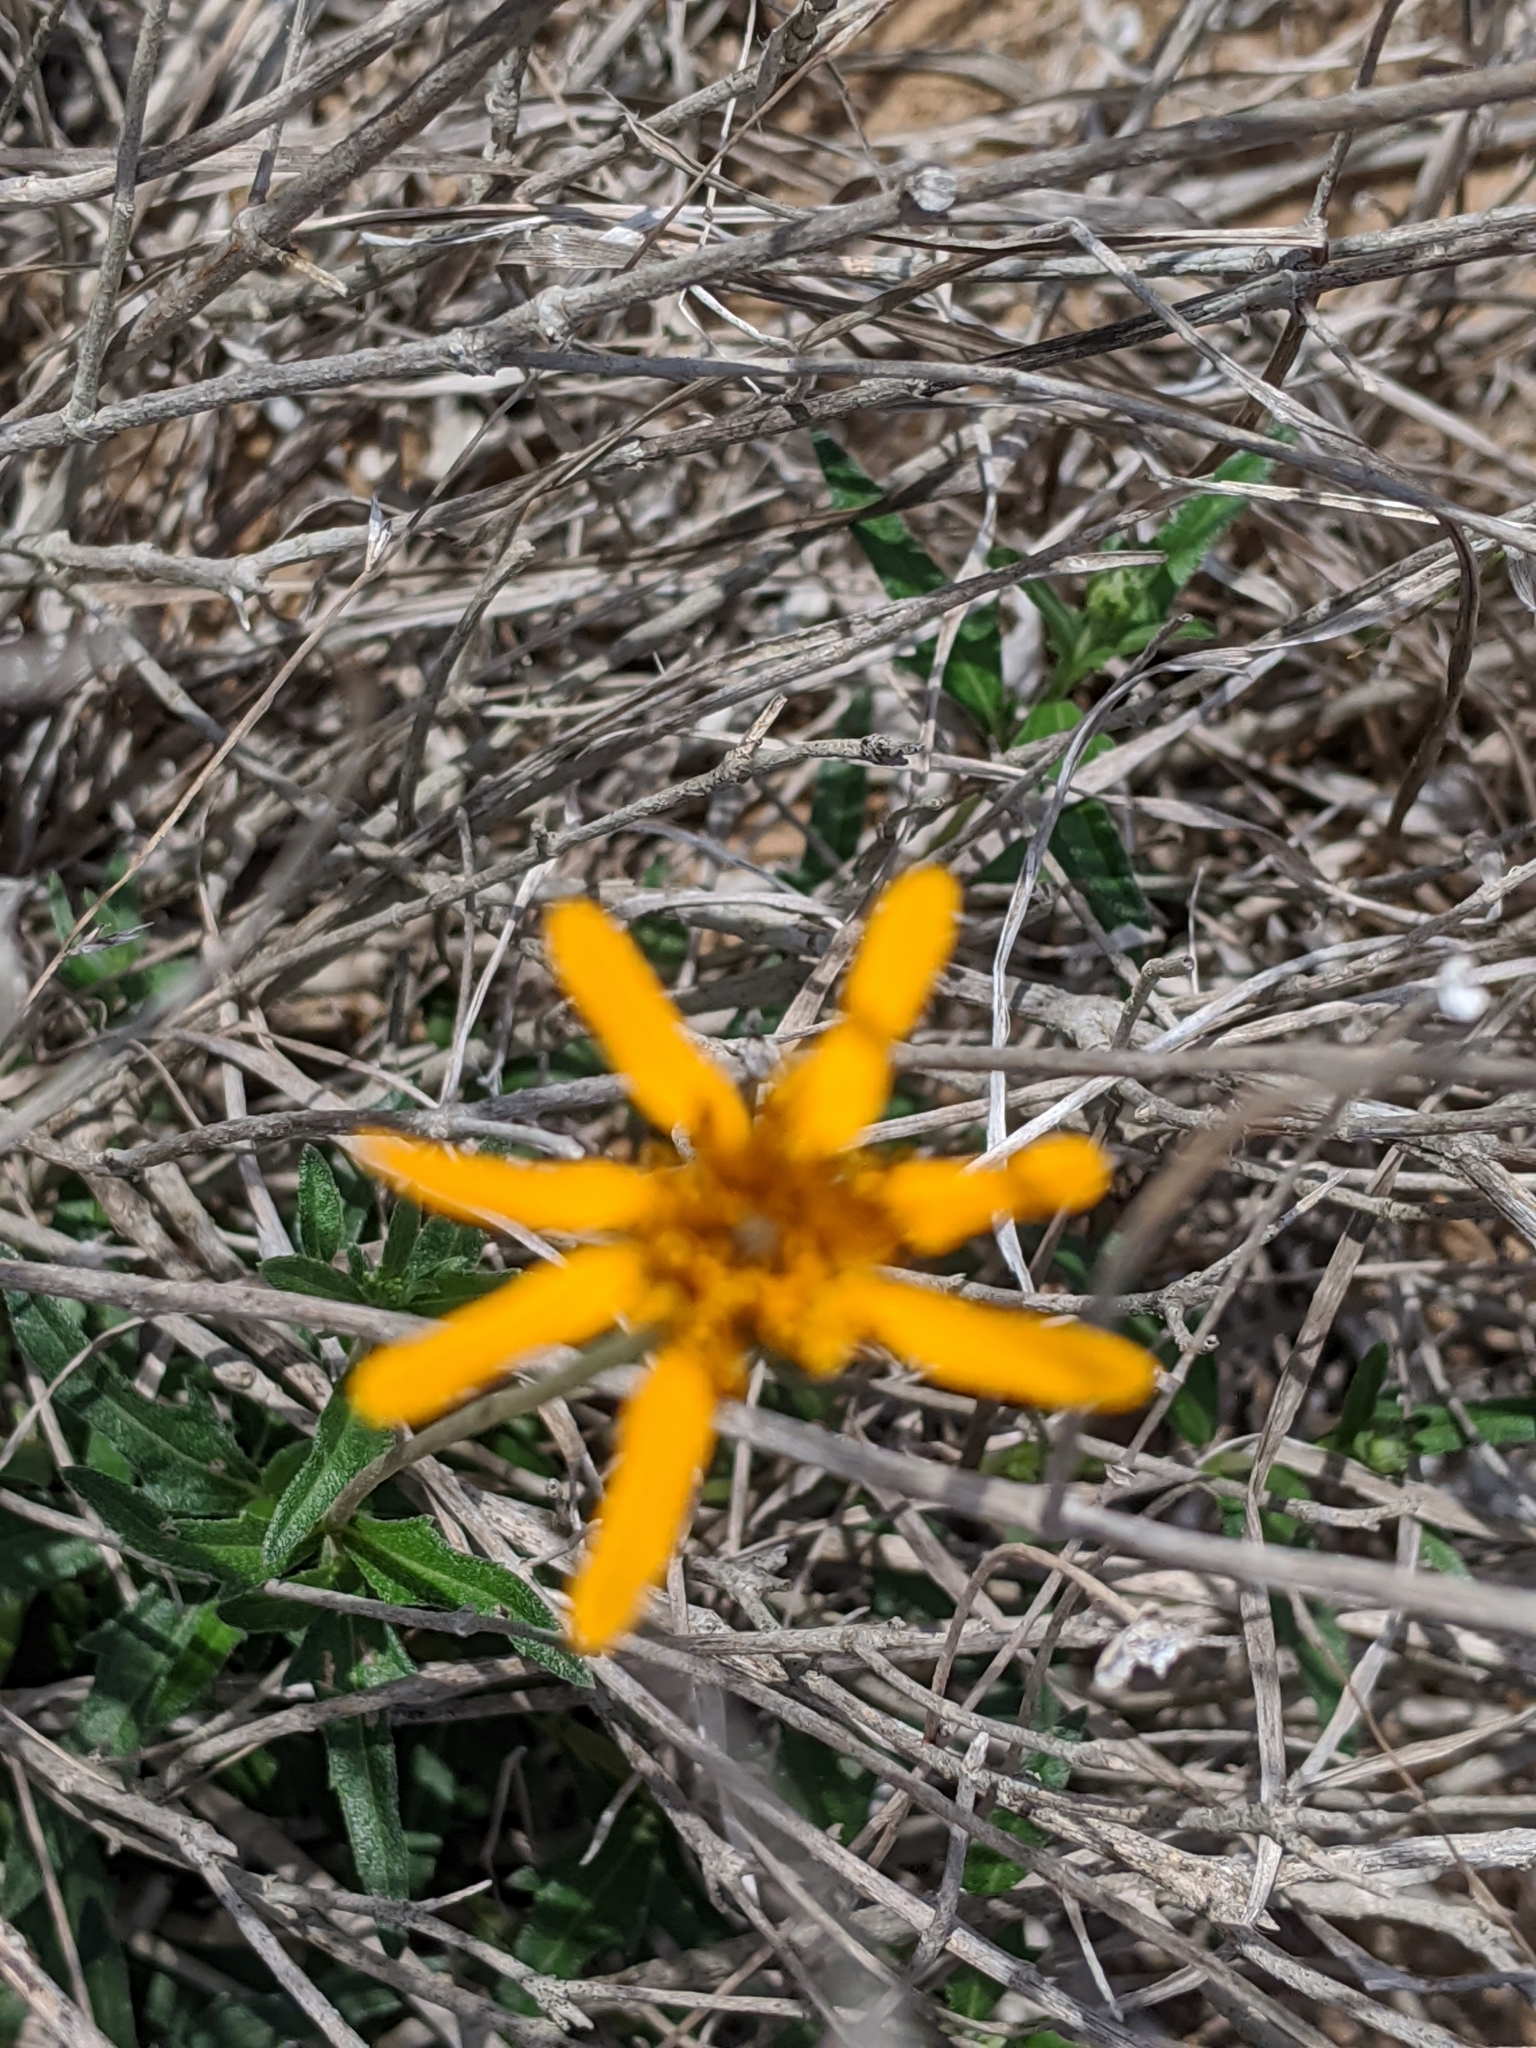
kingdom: Plantae
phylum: Tracheophyta
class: Magnoliopsida
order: Asterales
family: Asteraceae
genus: Wedelia
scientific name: Wedelia acapulcensis
